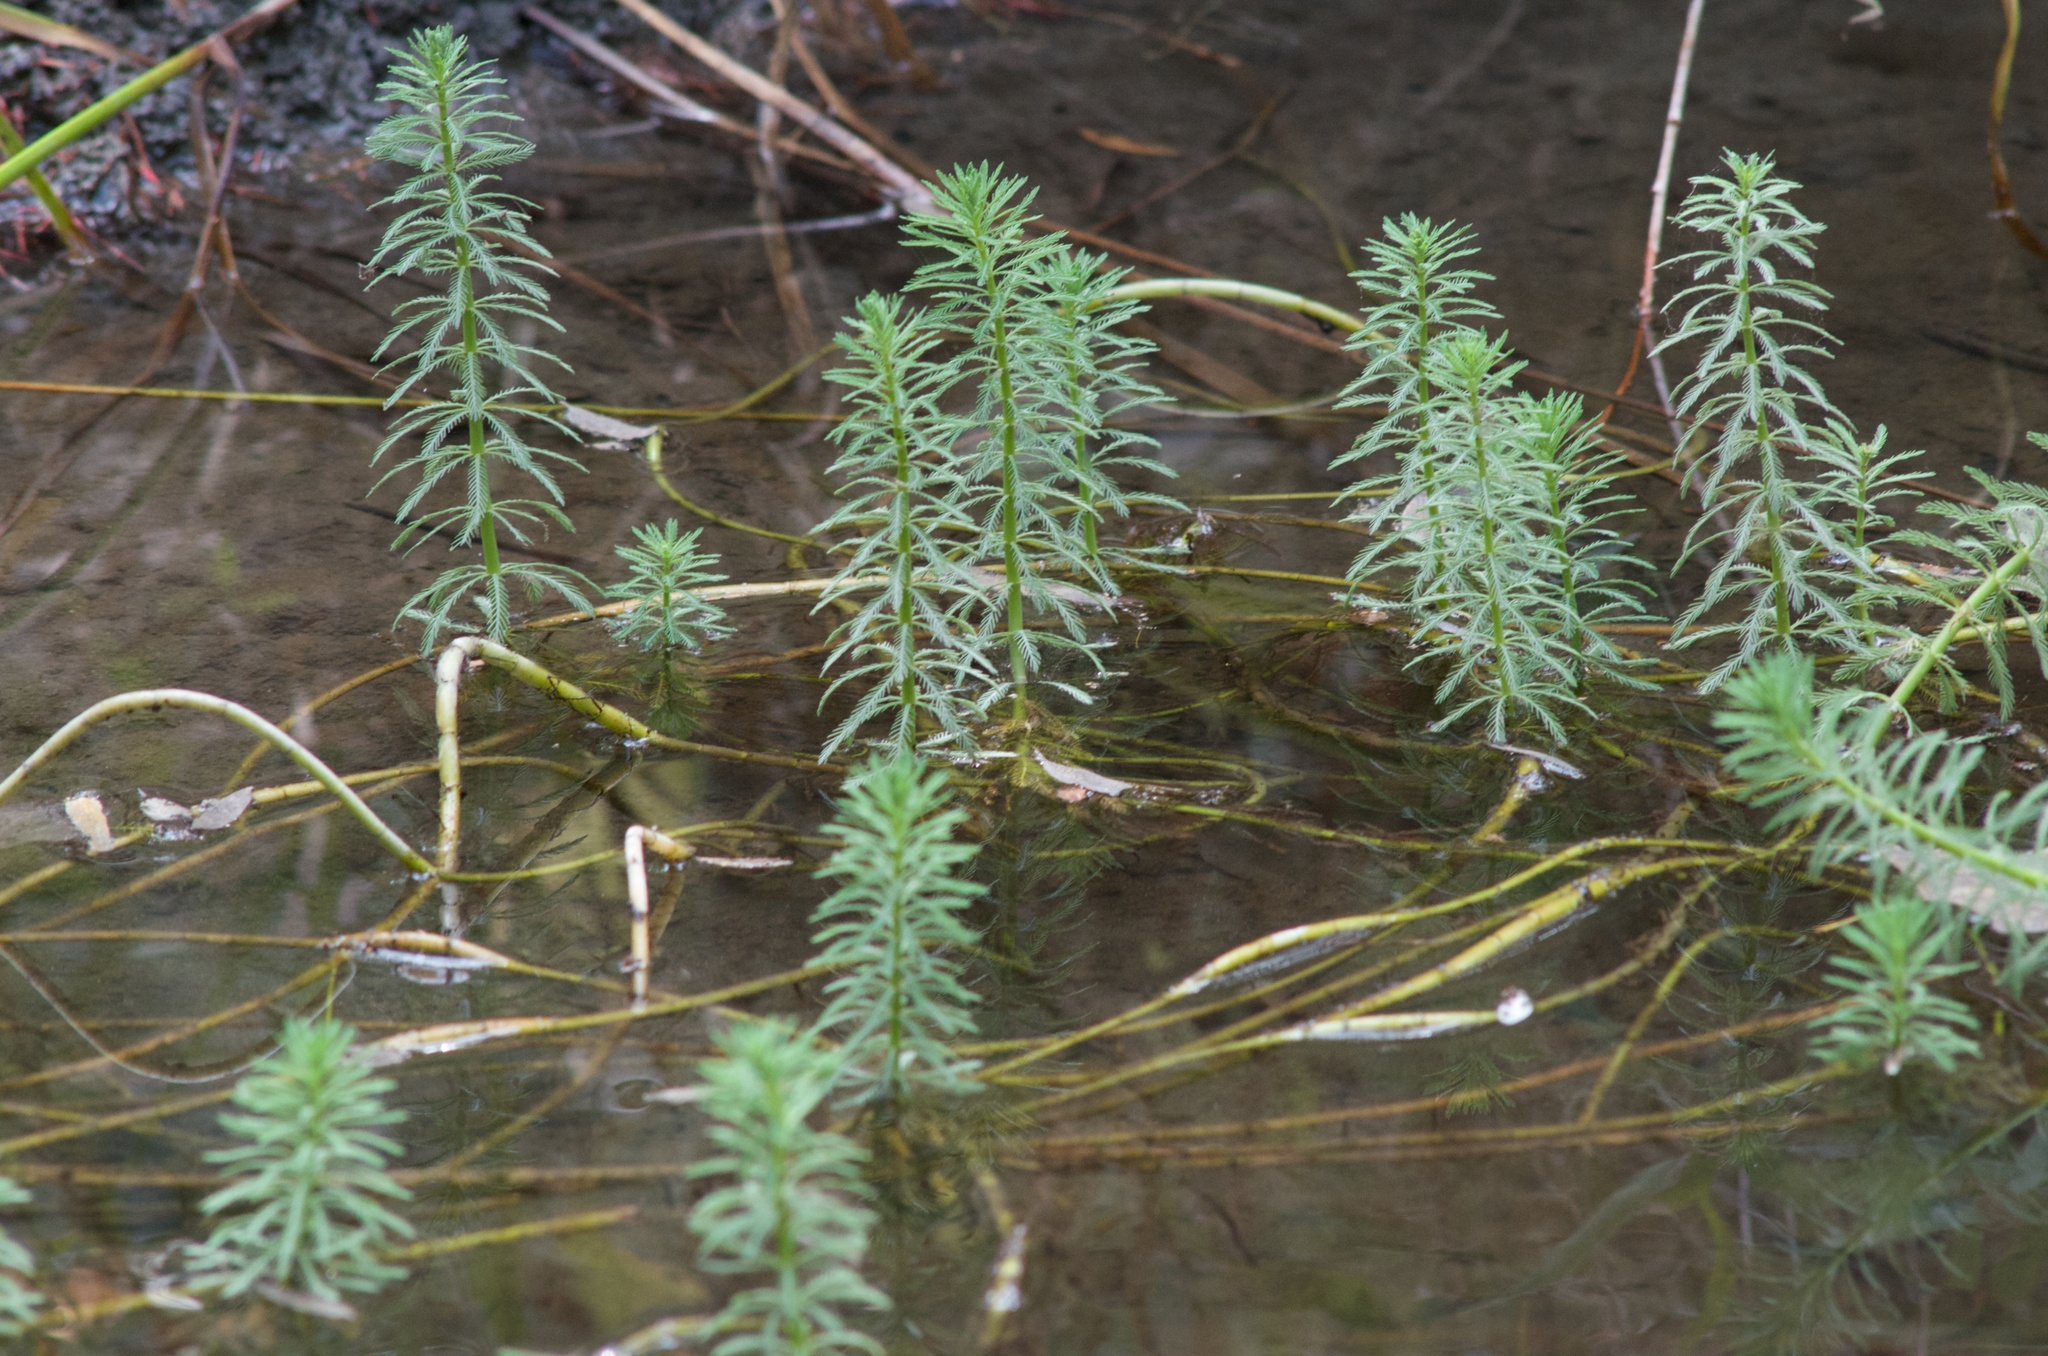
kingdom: Plantae
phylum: Tracheophyta
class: Magnoliopsida
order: Saxifragales
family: Haloragaceae
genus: Myriophyllum
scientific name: Myriophyllum aquaticum
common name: Parrot's feather
